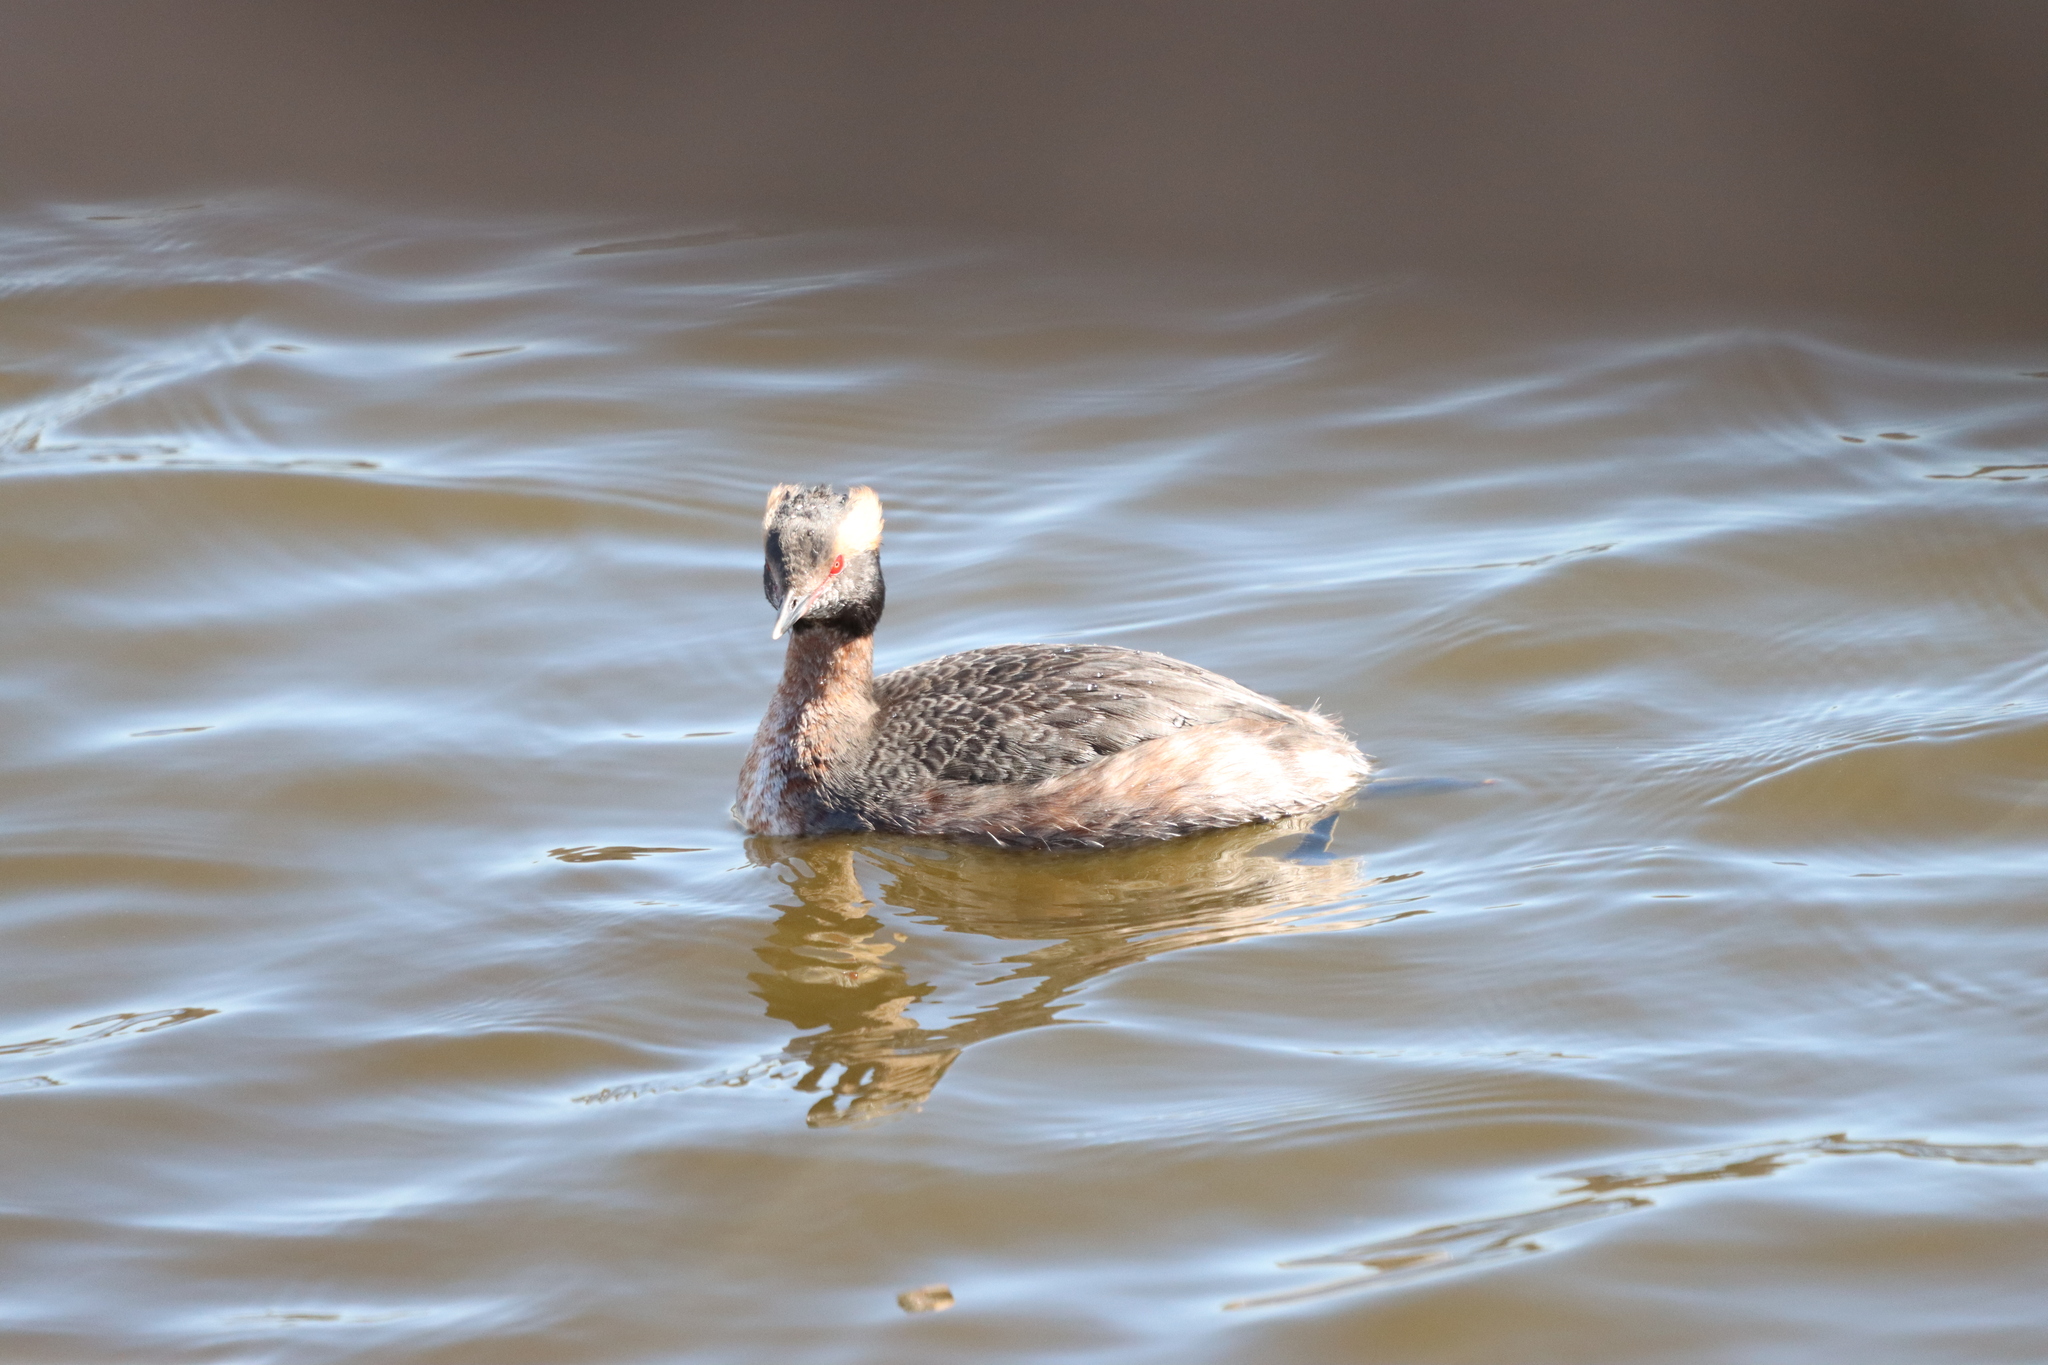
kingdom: Animalia
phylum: Chordata
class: Aves
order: Podicipediformes
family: Podicipedidae
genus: Podiceps
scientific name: Podiceps auritus
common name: Horned grebe
